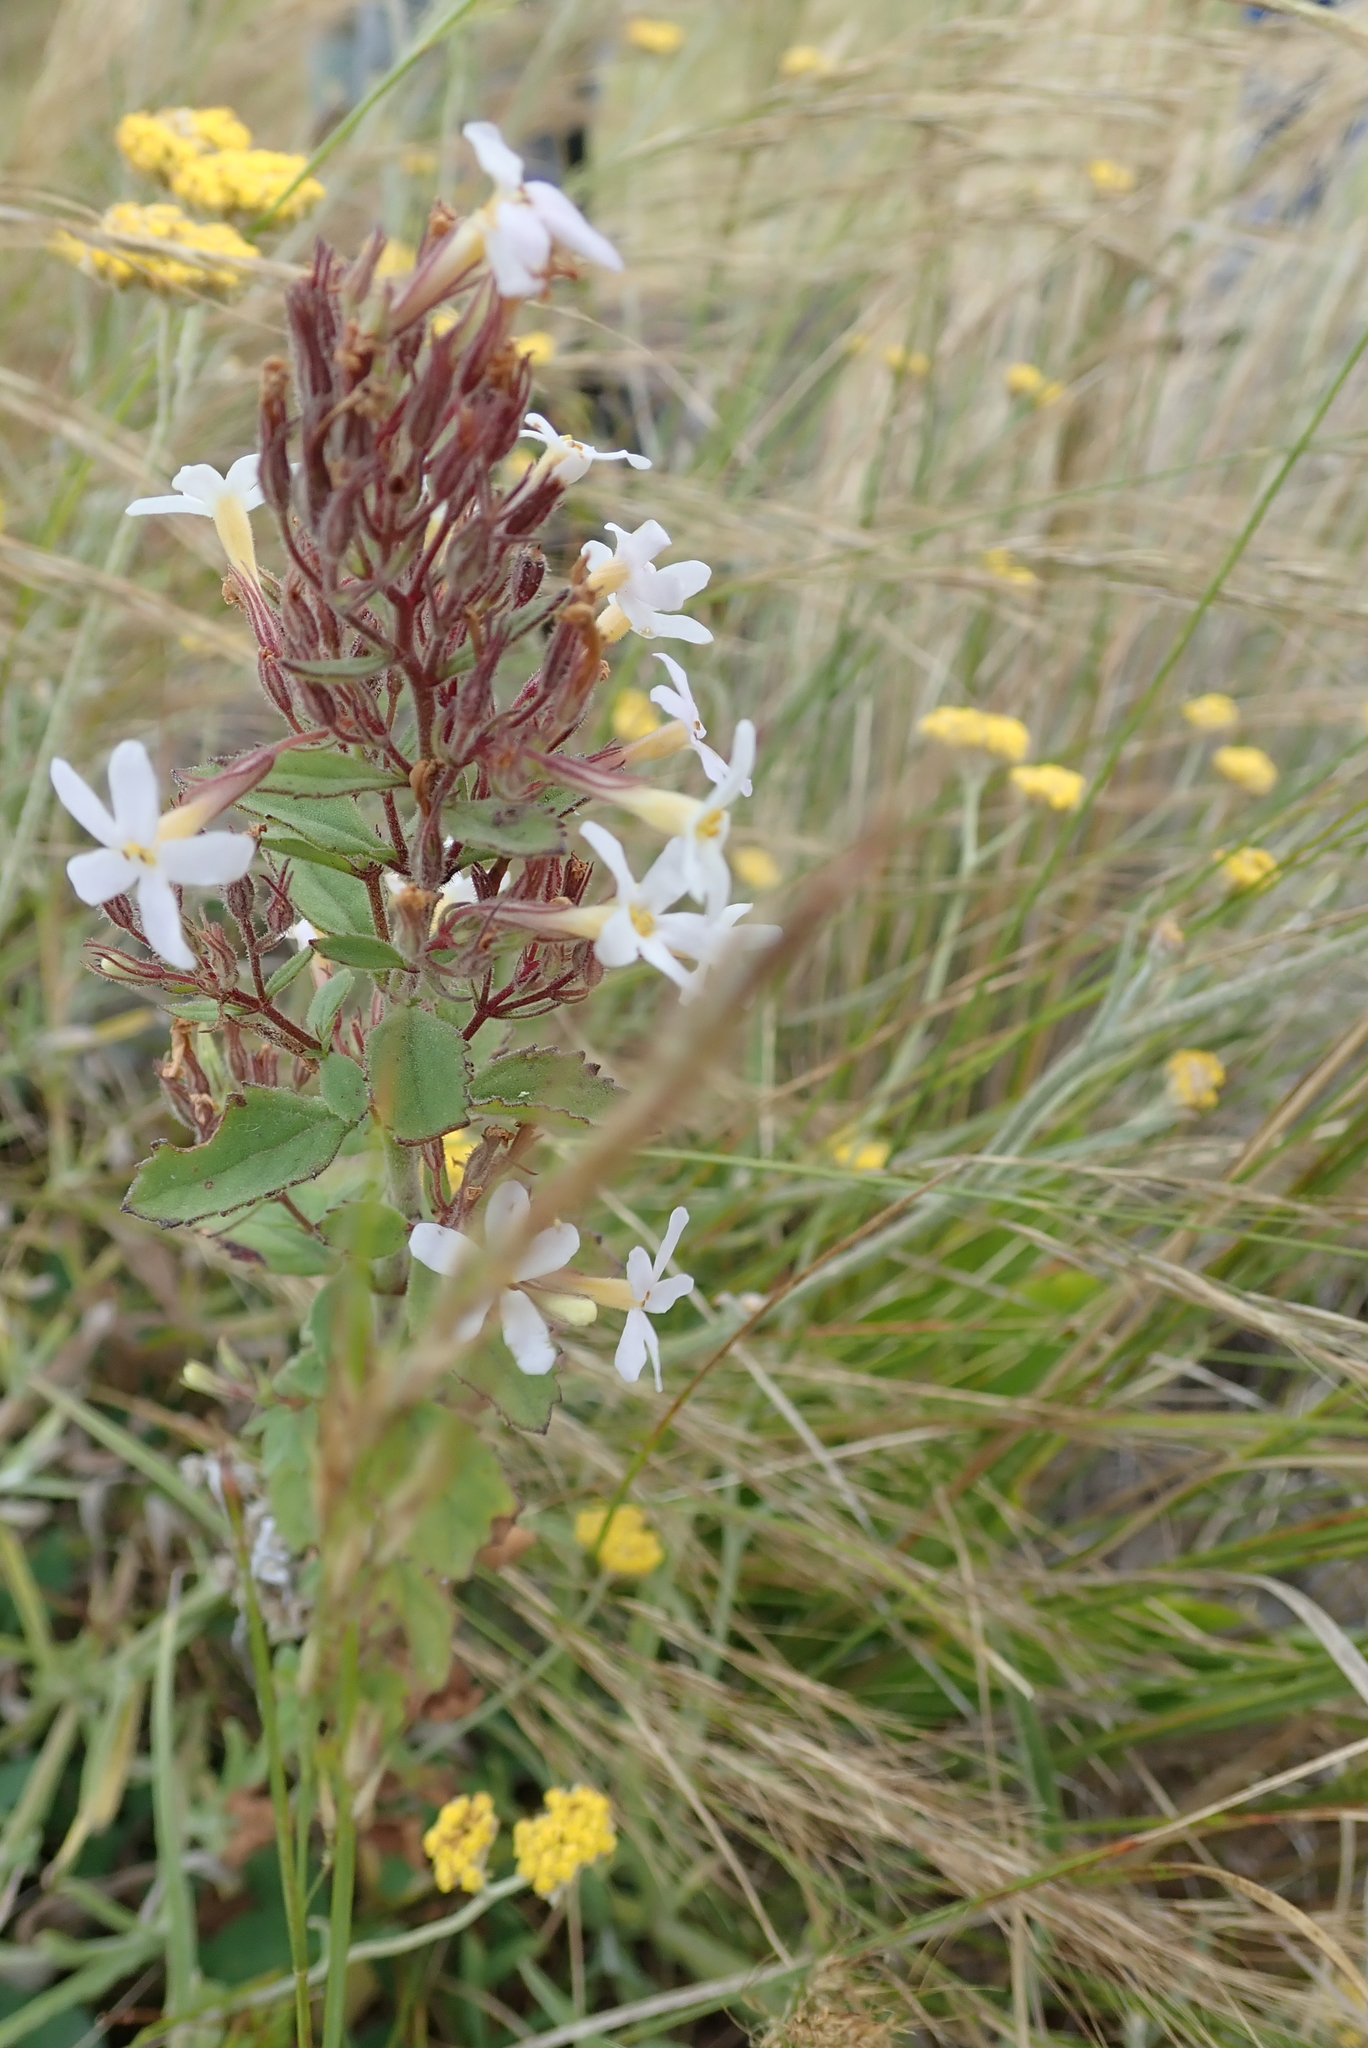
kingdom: Plantae
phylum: Tracheophyta
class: Magnoliopsida
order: Lamiales
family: Scrophulariaceae
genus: Chaenostoma
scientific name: Chaenostoma floribundum
